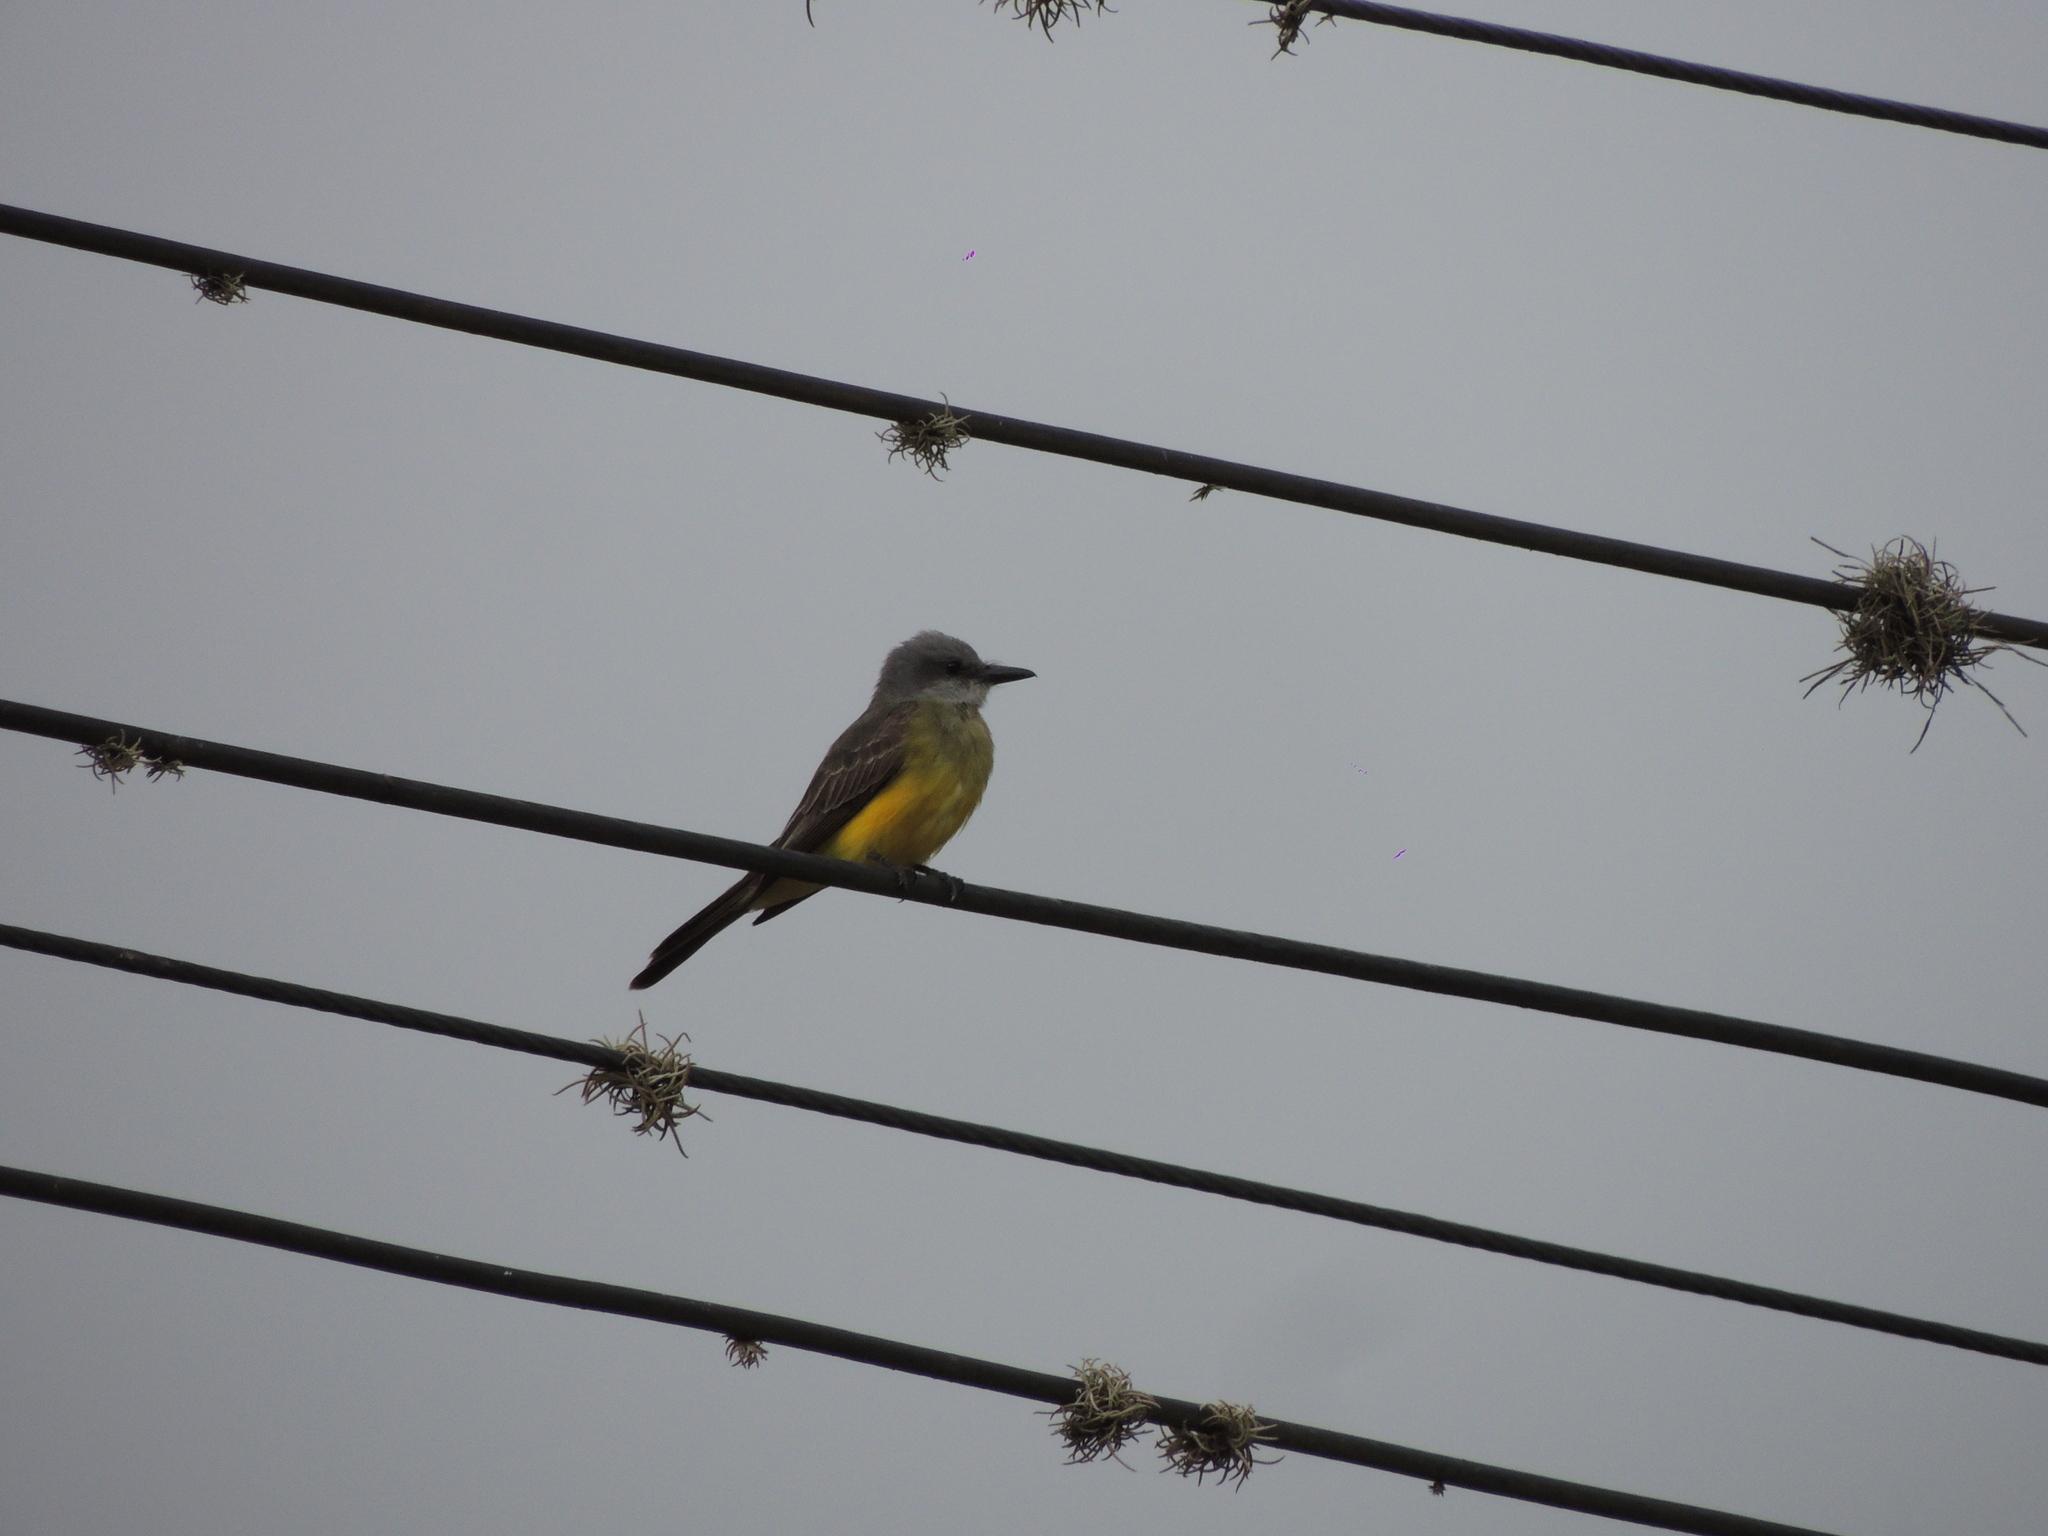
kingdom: Animalia
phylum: Chordata
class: Aves
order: Passeriformes
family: Tyrannidae
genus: Tyrannus
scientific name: Tyrannus melancholicus
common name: Tropical kingbird
